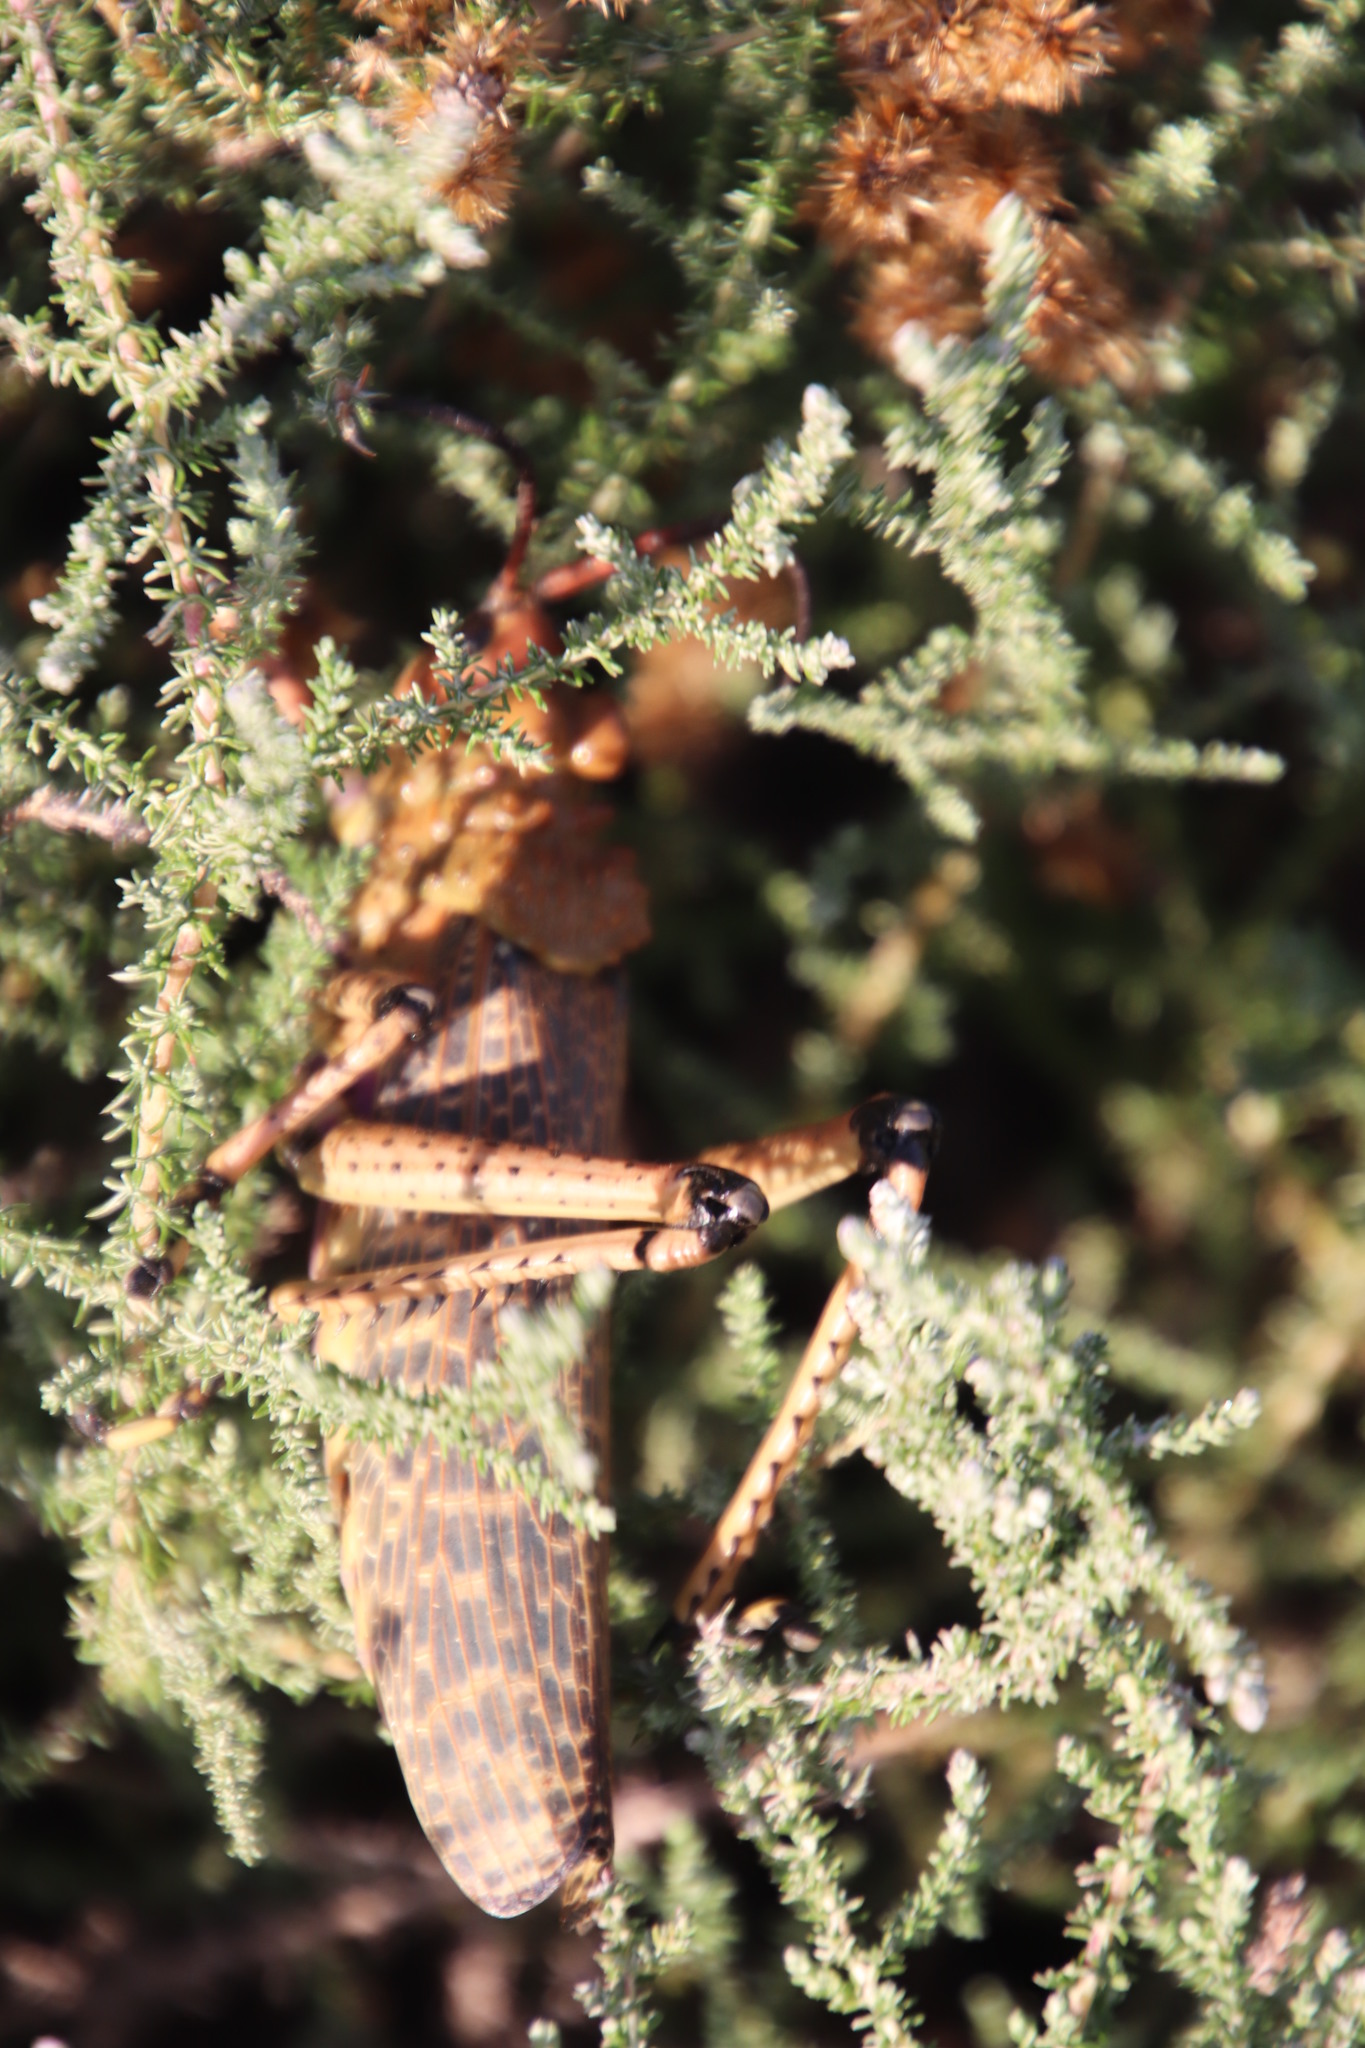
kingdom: Animalia
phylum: Arthropoda
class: Insecta
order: Orthoptera
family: Pyrgomorphidae
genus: Phymateus
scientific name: Phymateus leprosus
